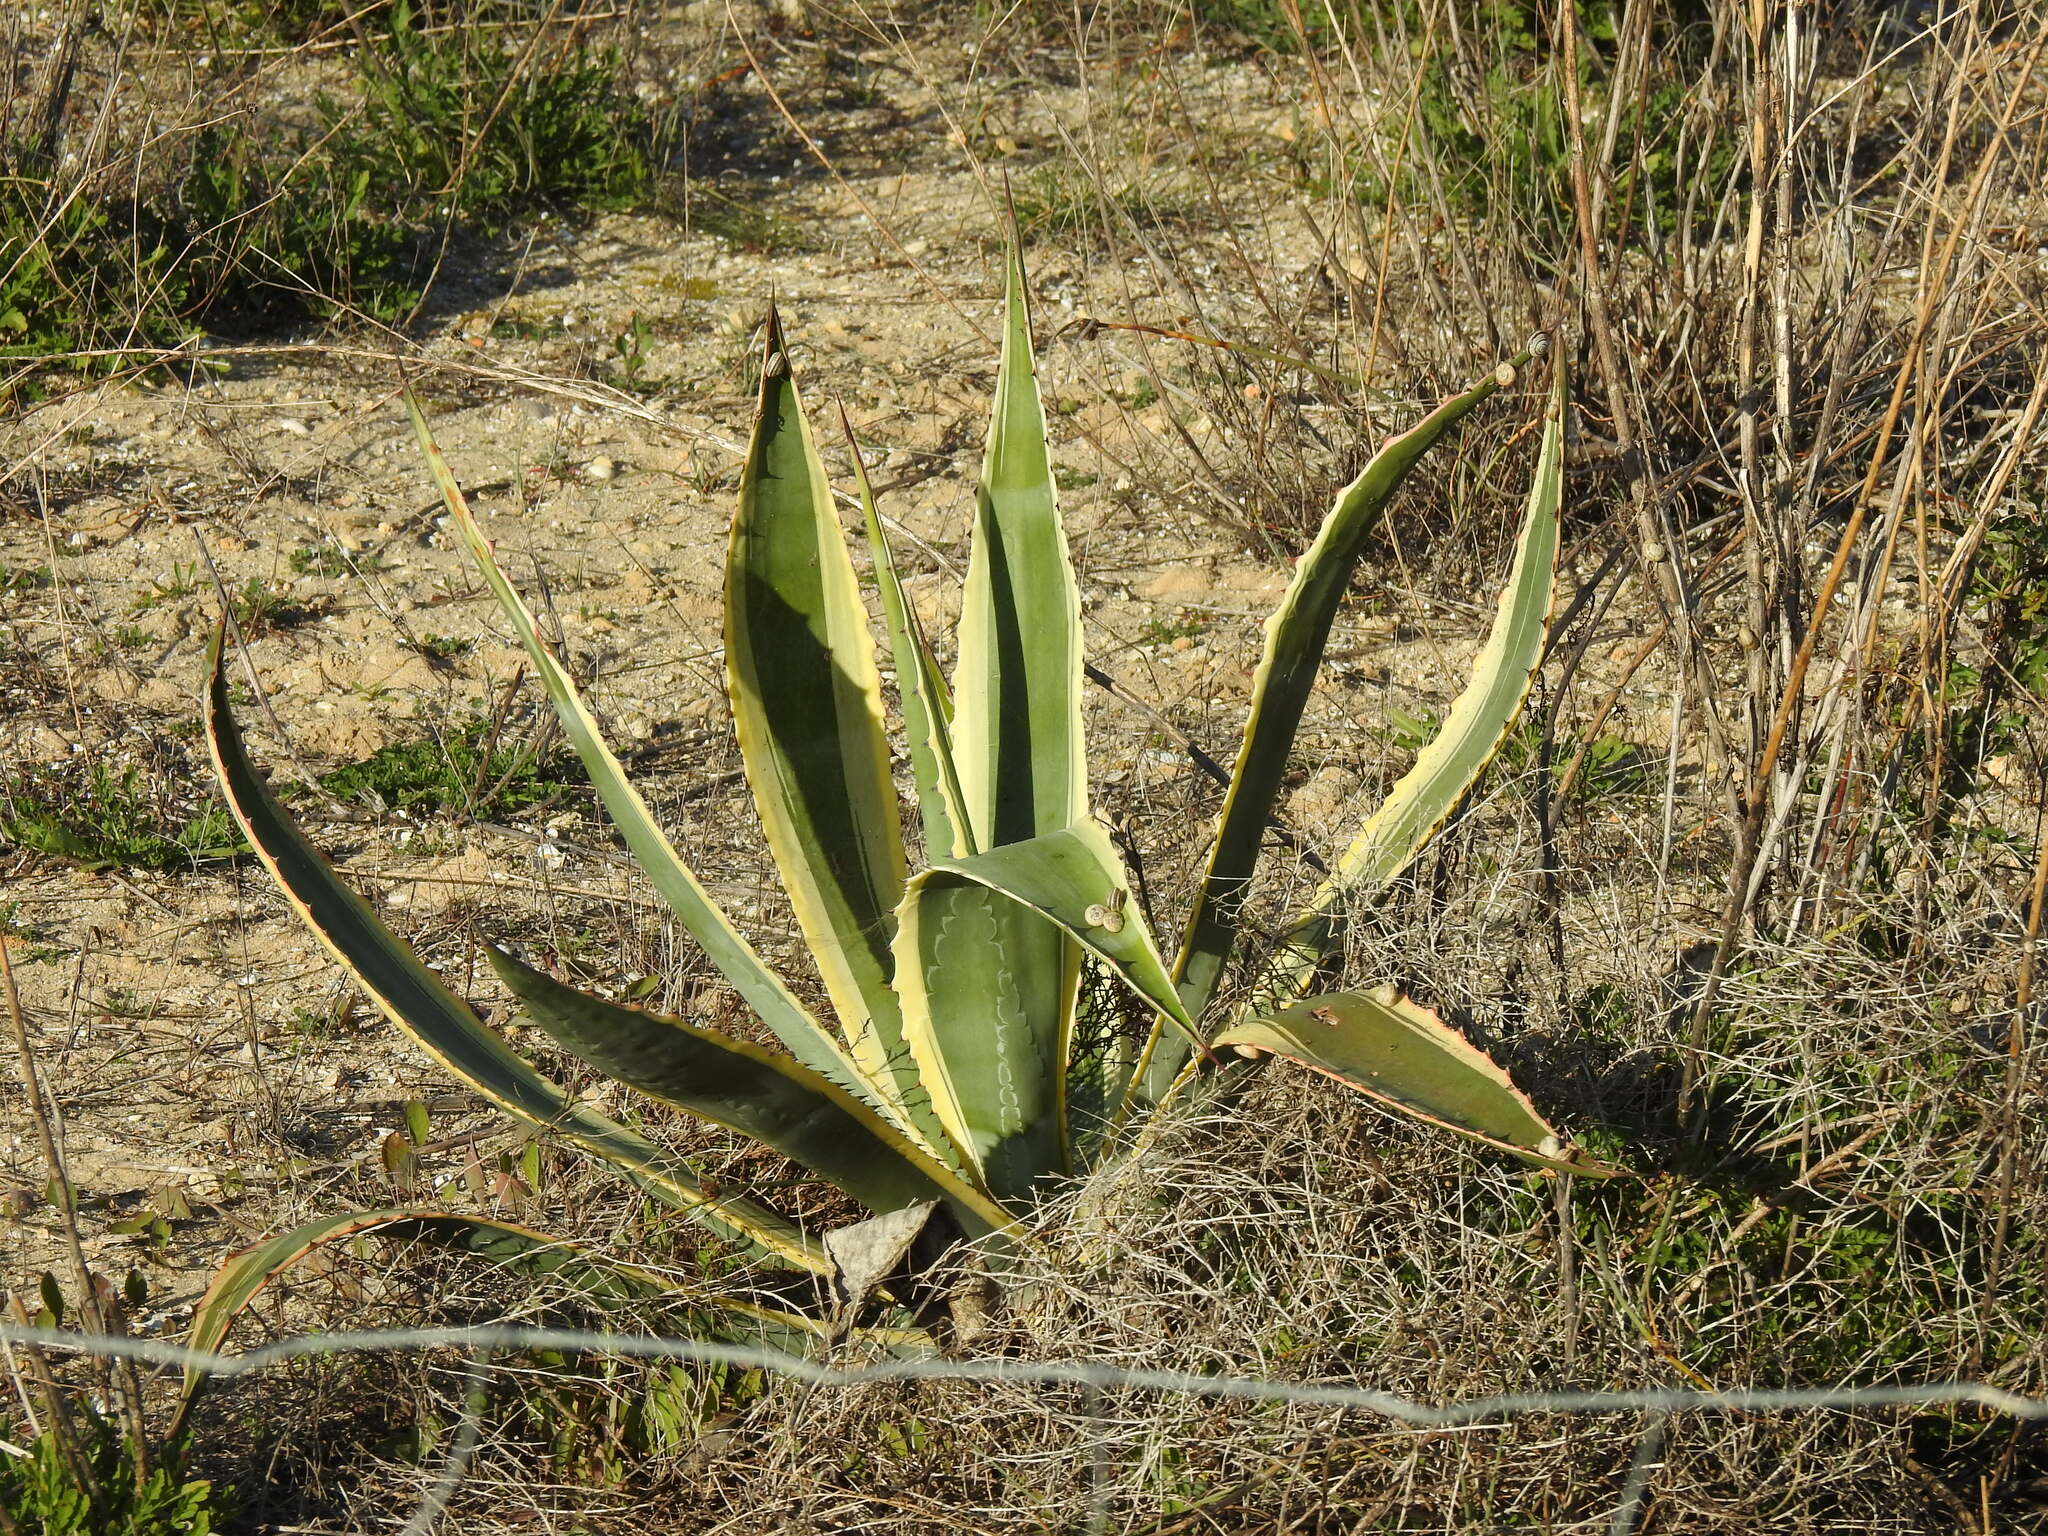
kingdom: Plantae
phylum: Tracheophyta
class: Liliopsida
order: Asparagales
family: Asparagaceae
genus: Agave
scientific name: Agave americana
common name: Centuryplant
